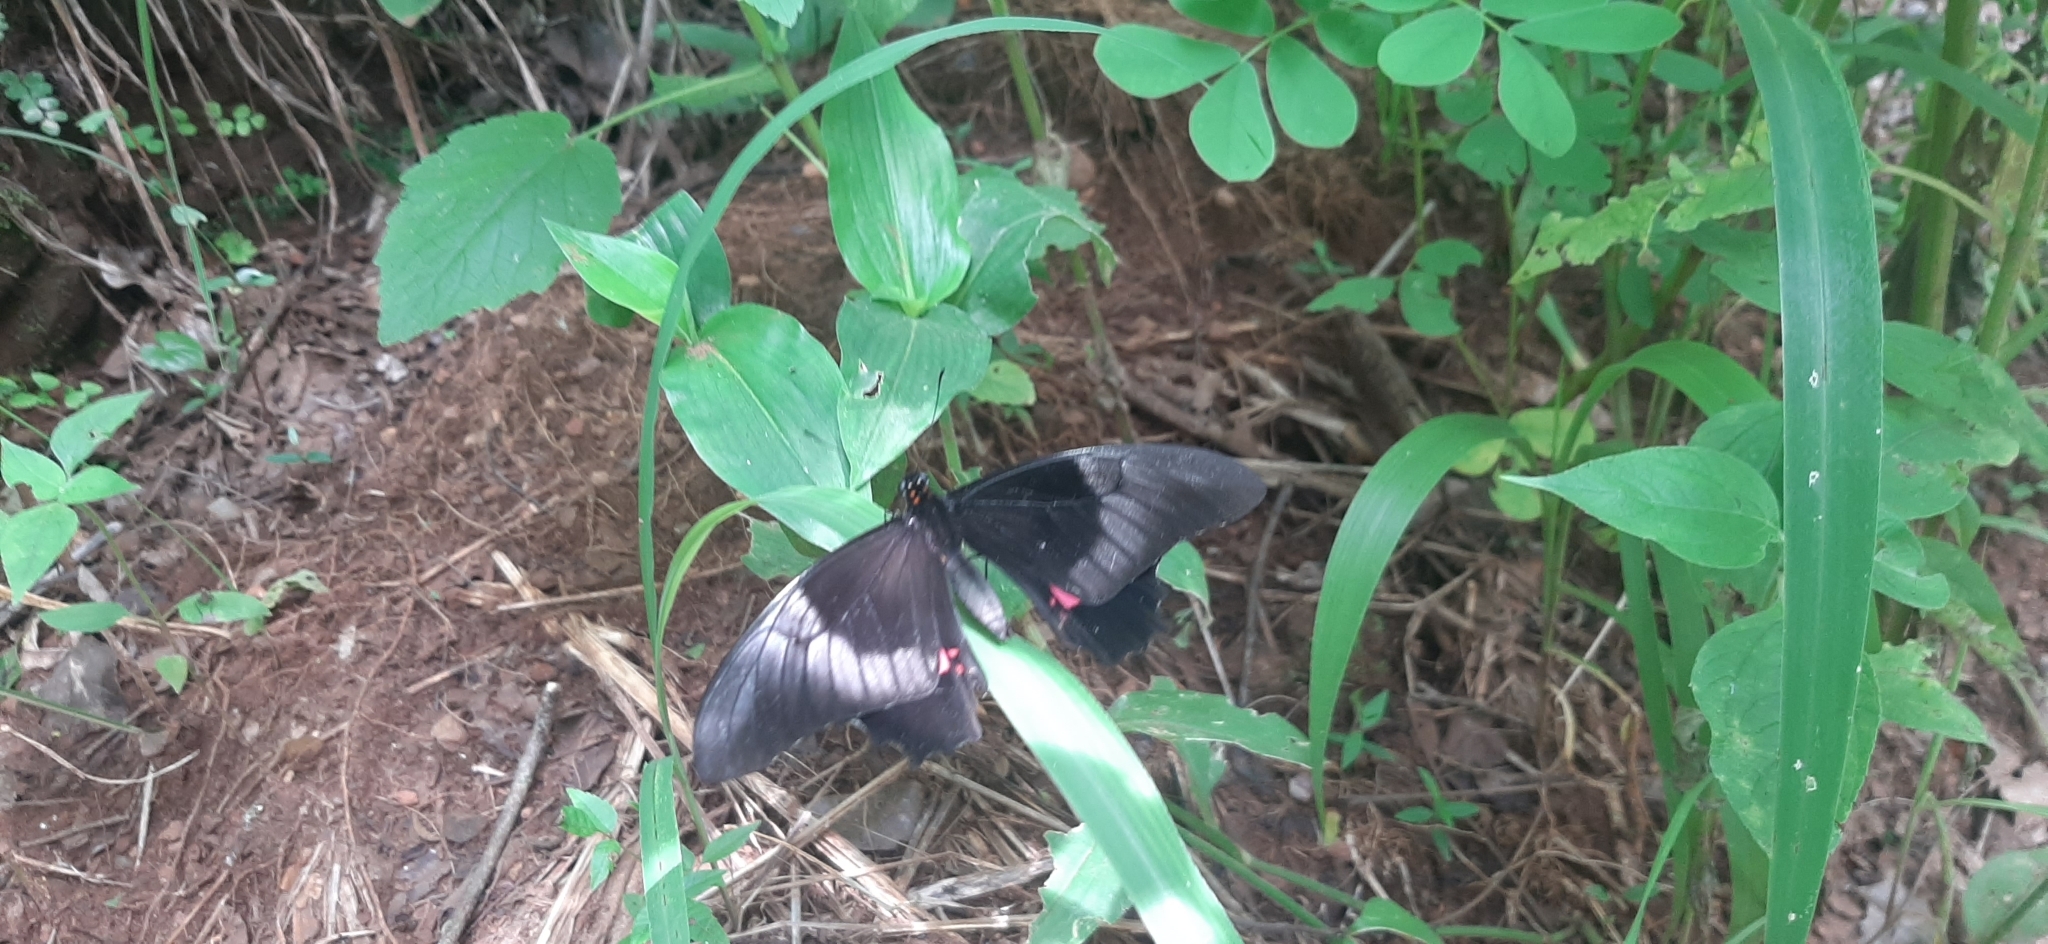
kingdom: Animalia
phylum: Arthropoda
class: Insecta
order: Lepidoptera
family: Papilionidae
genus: Papilio
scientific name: Papilio anchisiades
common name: Idaes swallowtail
